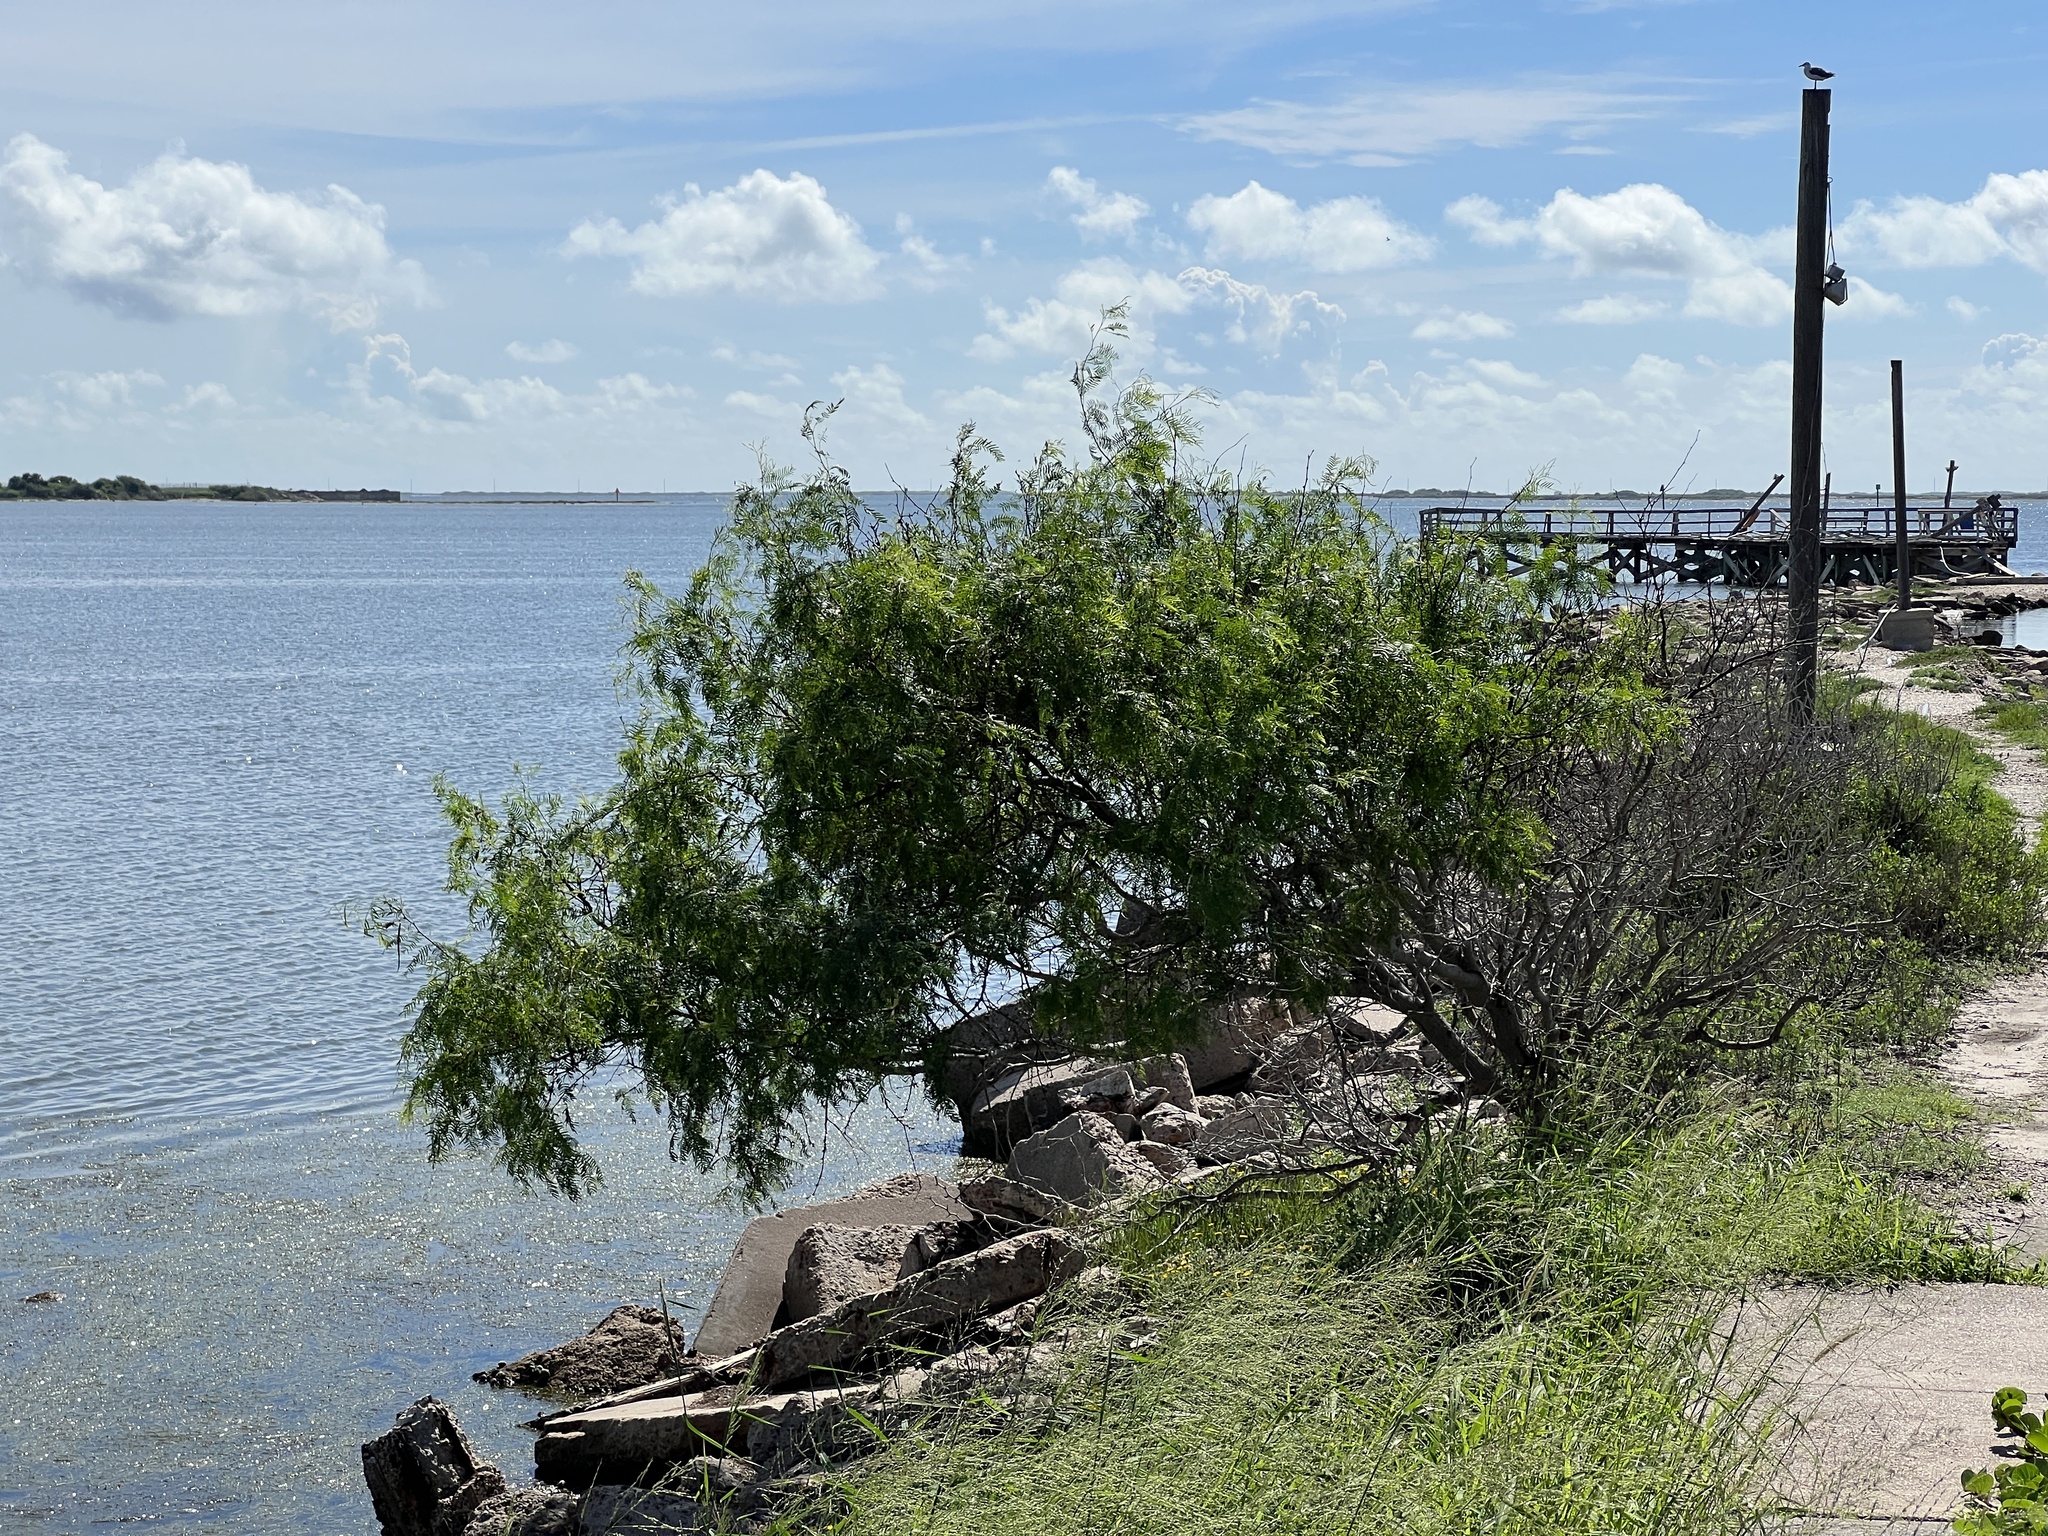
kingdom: Plantae
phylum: Tracheophyta
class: Magnoliopsida
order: Fabales
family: Fabaceae
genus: Prosopis
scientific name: Prosopis glandulosa
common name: Honey mesquite
